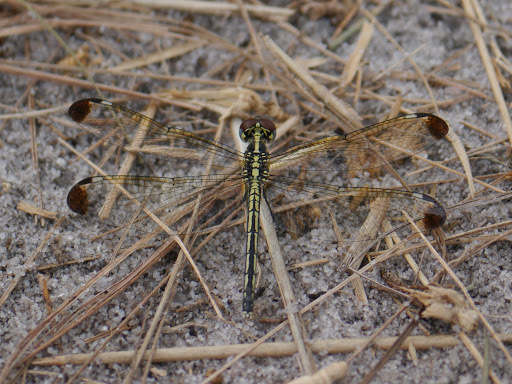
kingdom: Animalia
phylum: Arthropoda
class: Insecta
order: Odonata
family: Libellulidae
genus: Hemistigma
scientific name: Hemistigma albipunctum
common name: African pied-spot
